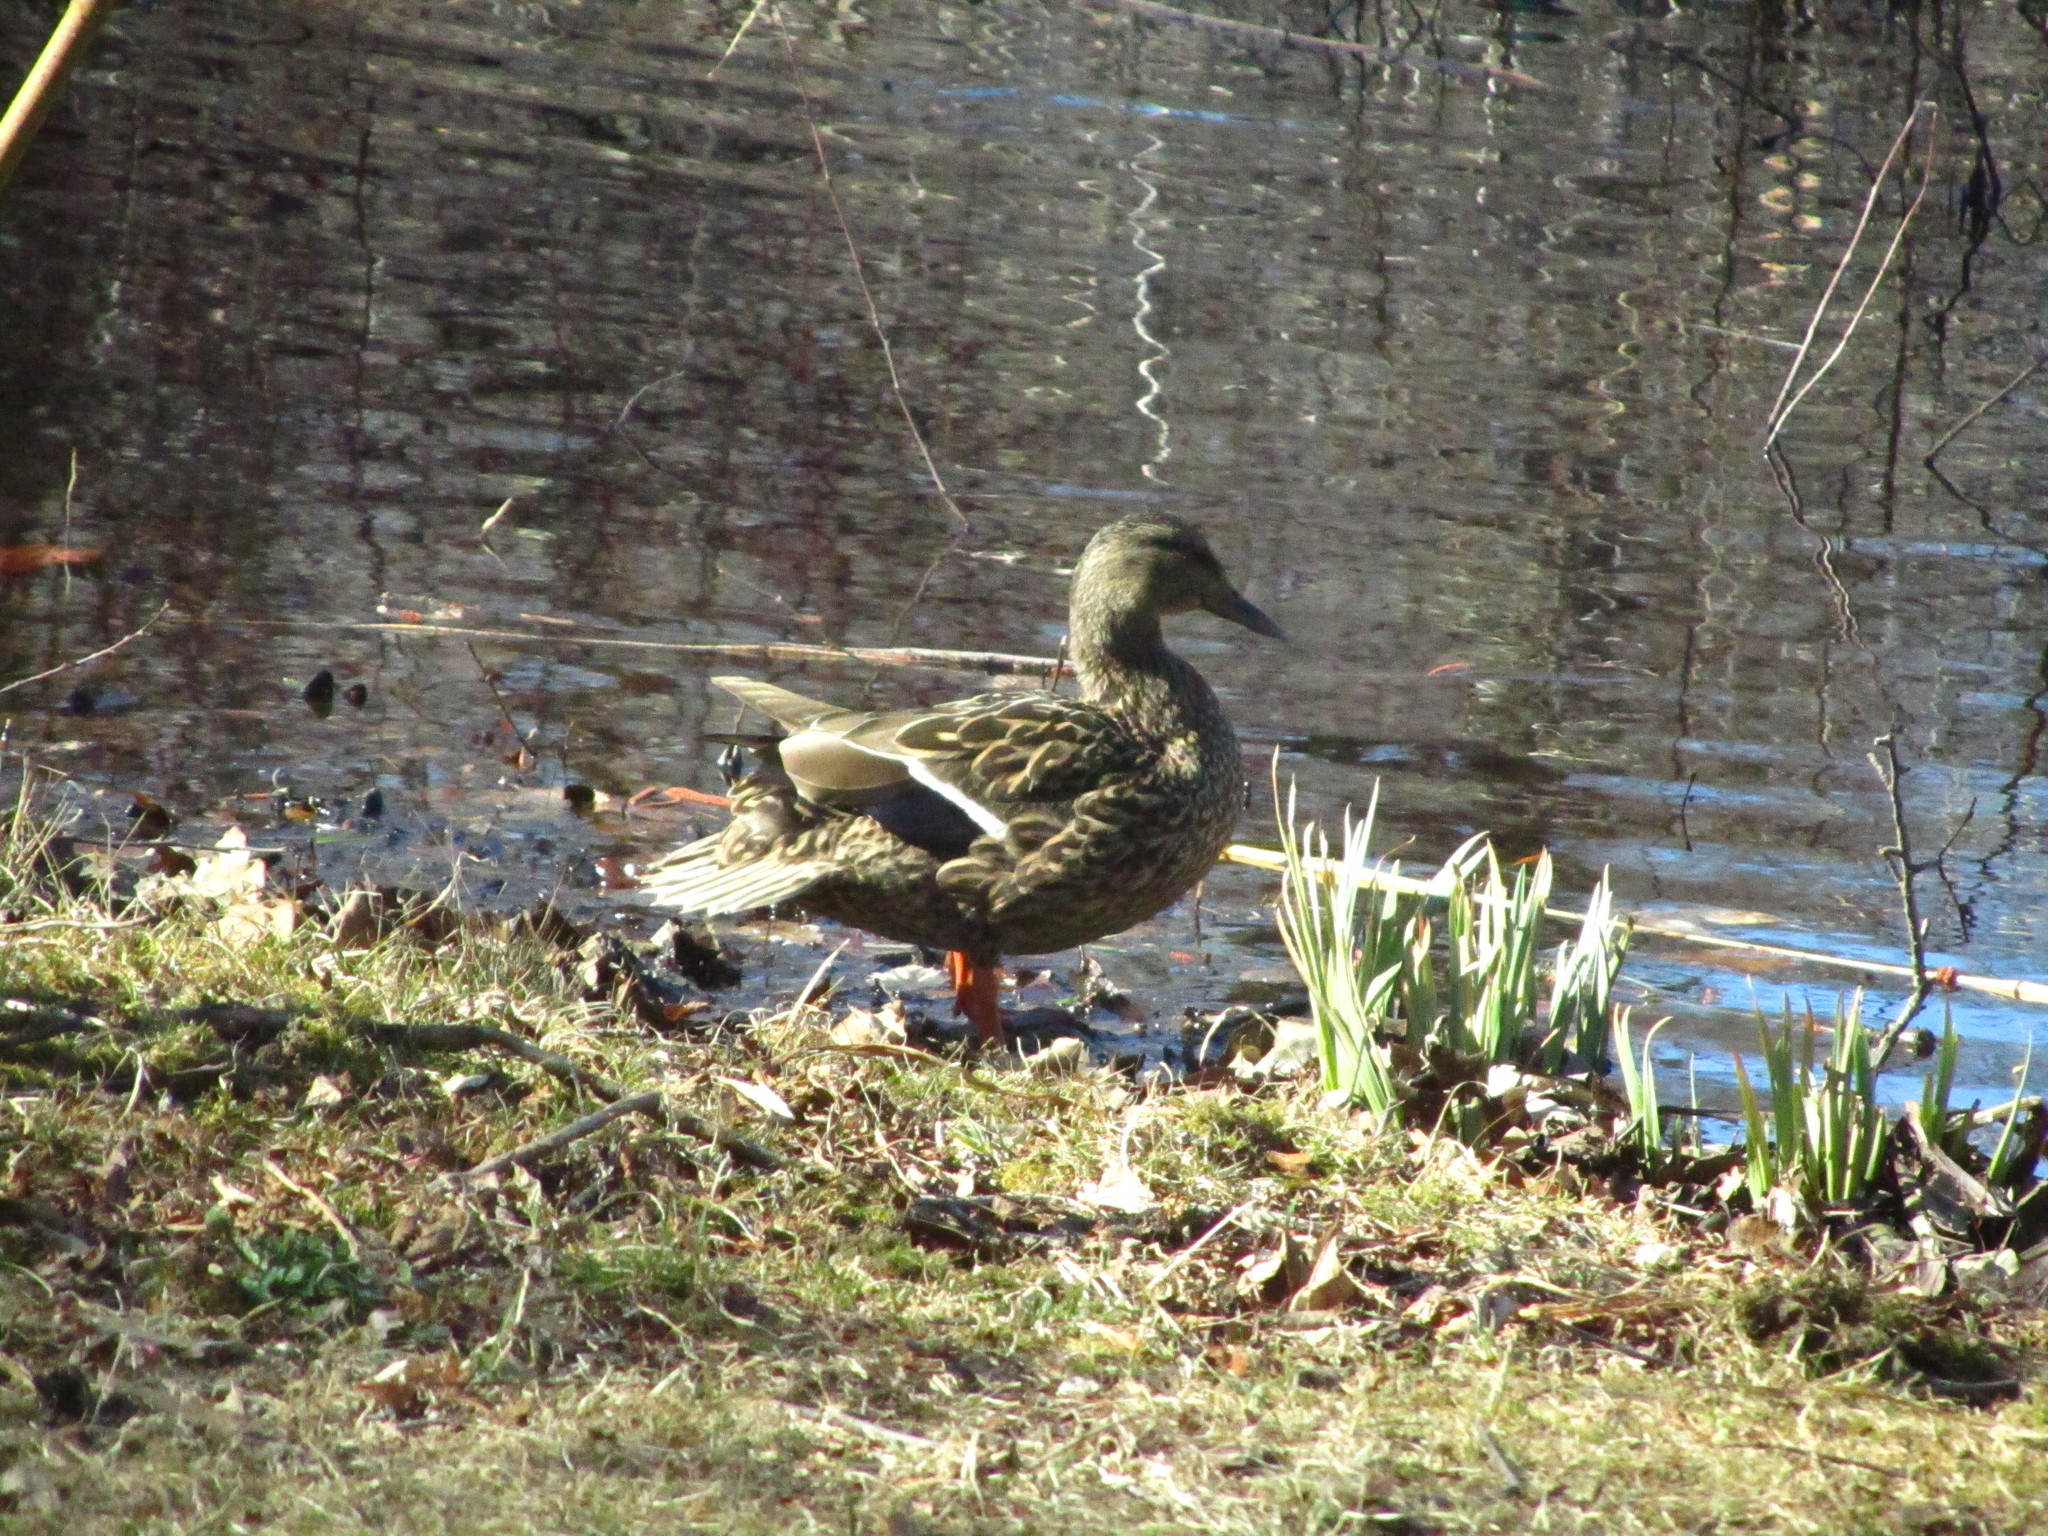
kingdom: Animalia
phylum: Chordata
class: Aves
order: Anseriformes
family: Anatidae
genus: Anas
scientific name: Anas platyrhynchos
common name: Mallard
